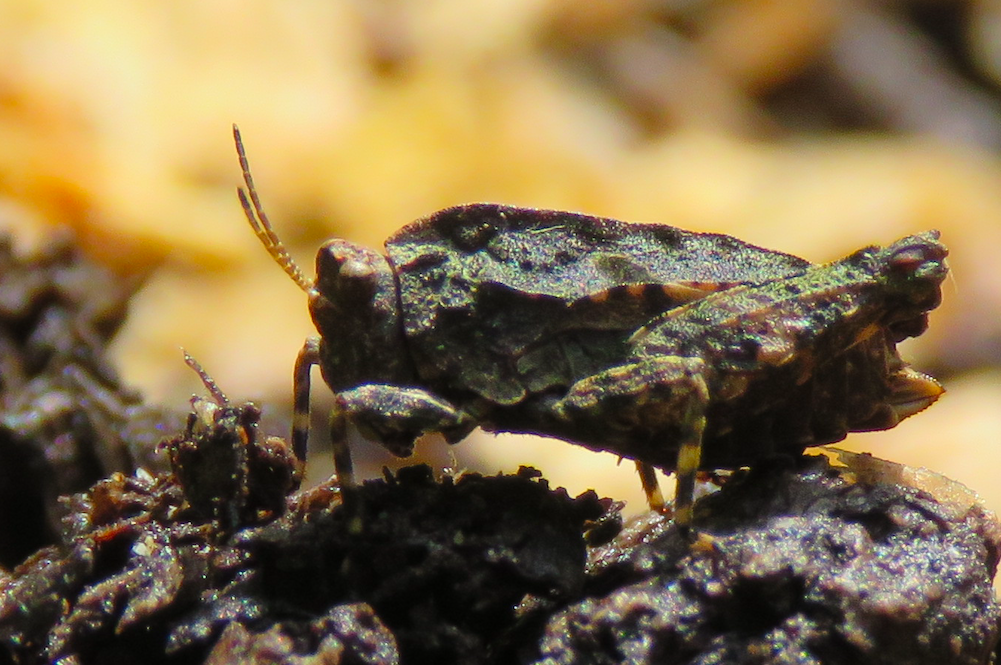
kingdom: Animalia
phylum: Arthropoda
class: Insecta
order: Orthoptera
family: Tetrigidae
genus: Tetrix
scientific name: Tetrix transsylvanica
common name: Transsylvanian wingless groundhopper
